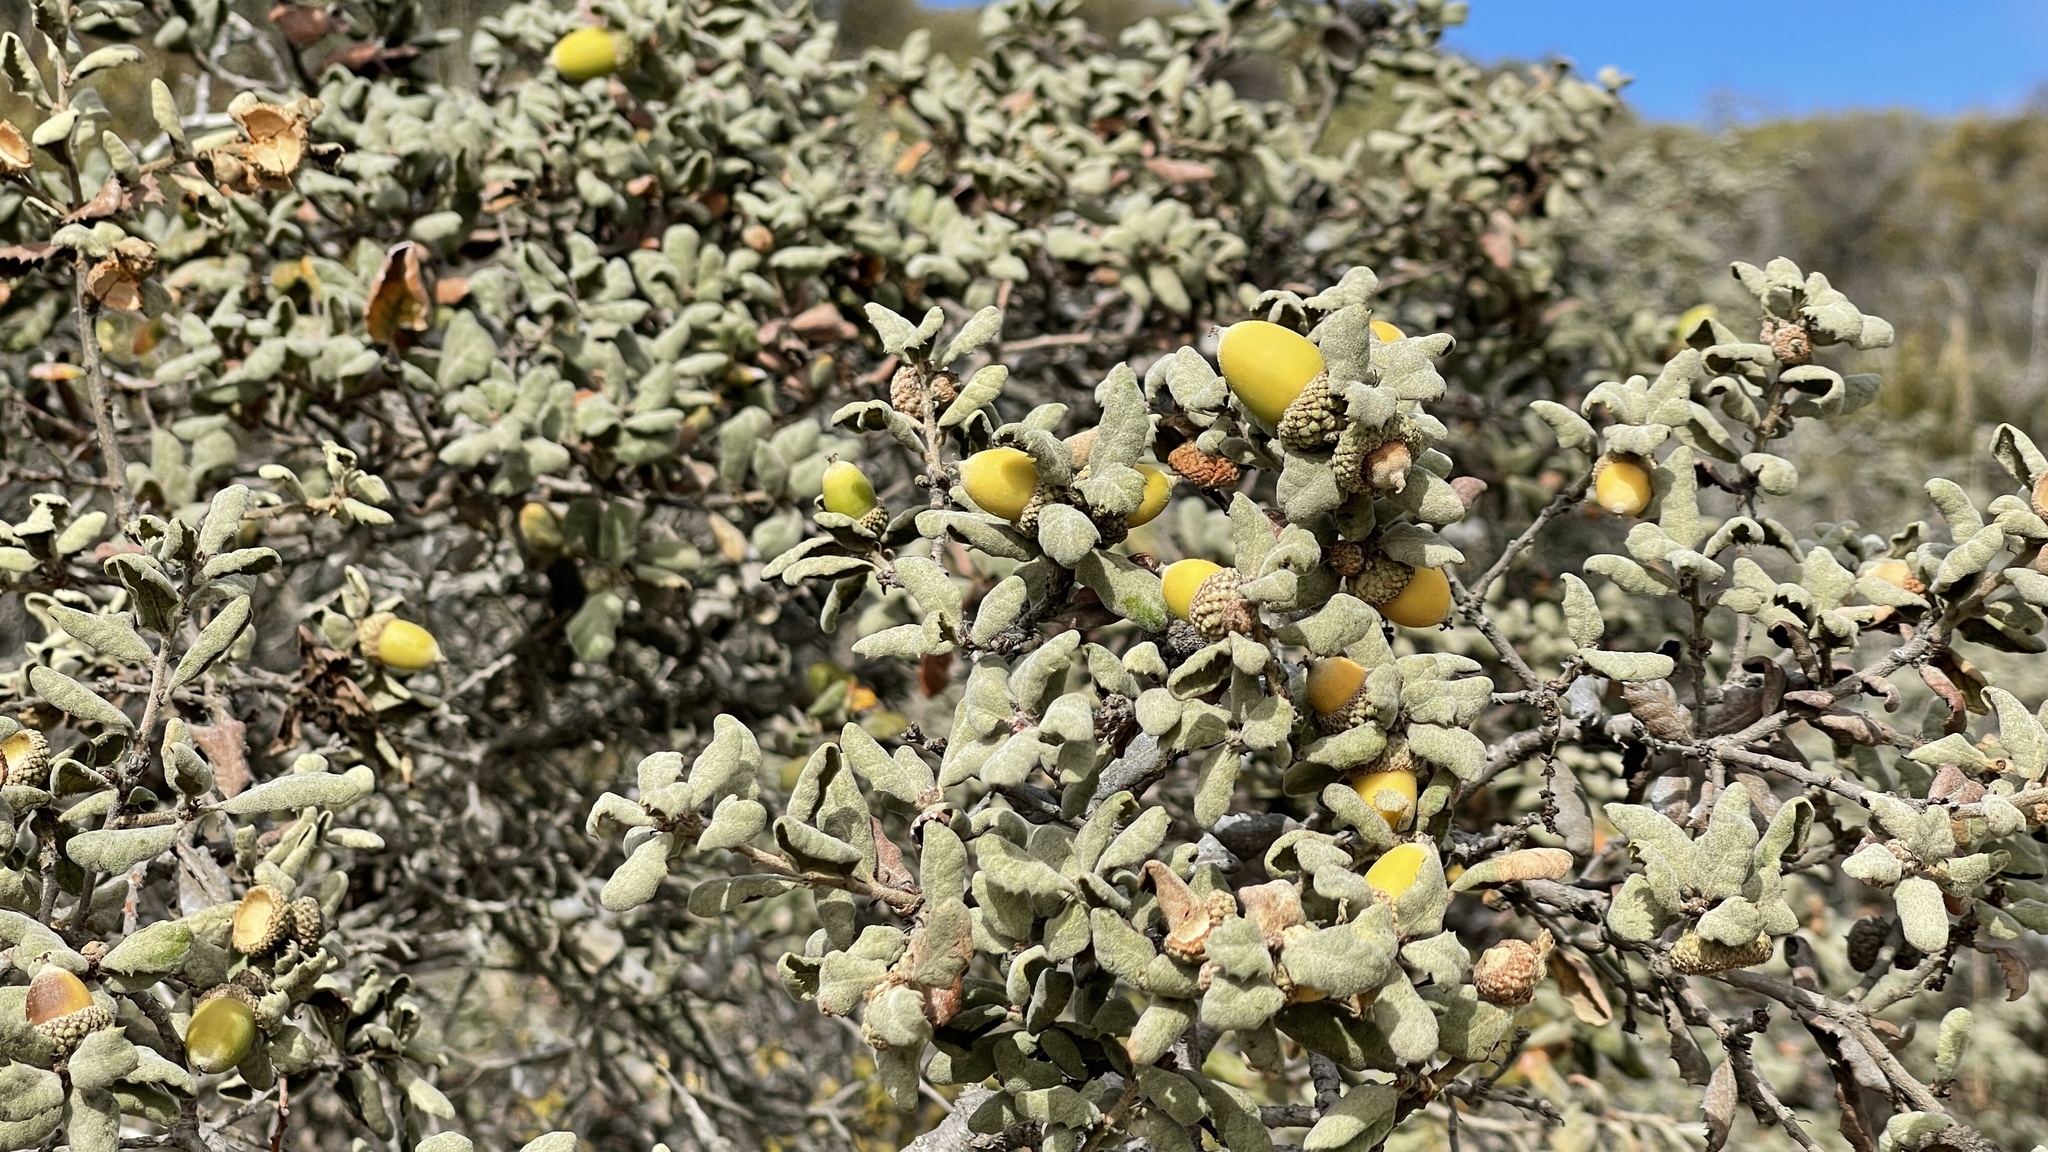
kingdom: Plantae
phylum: Tracheophyta
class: Magnoliopsida
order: Fagales
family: Fagaceae
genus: Quercus
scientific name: Quercus durata
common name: Leather oak
